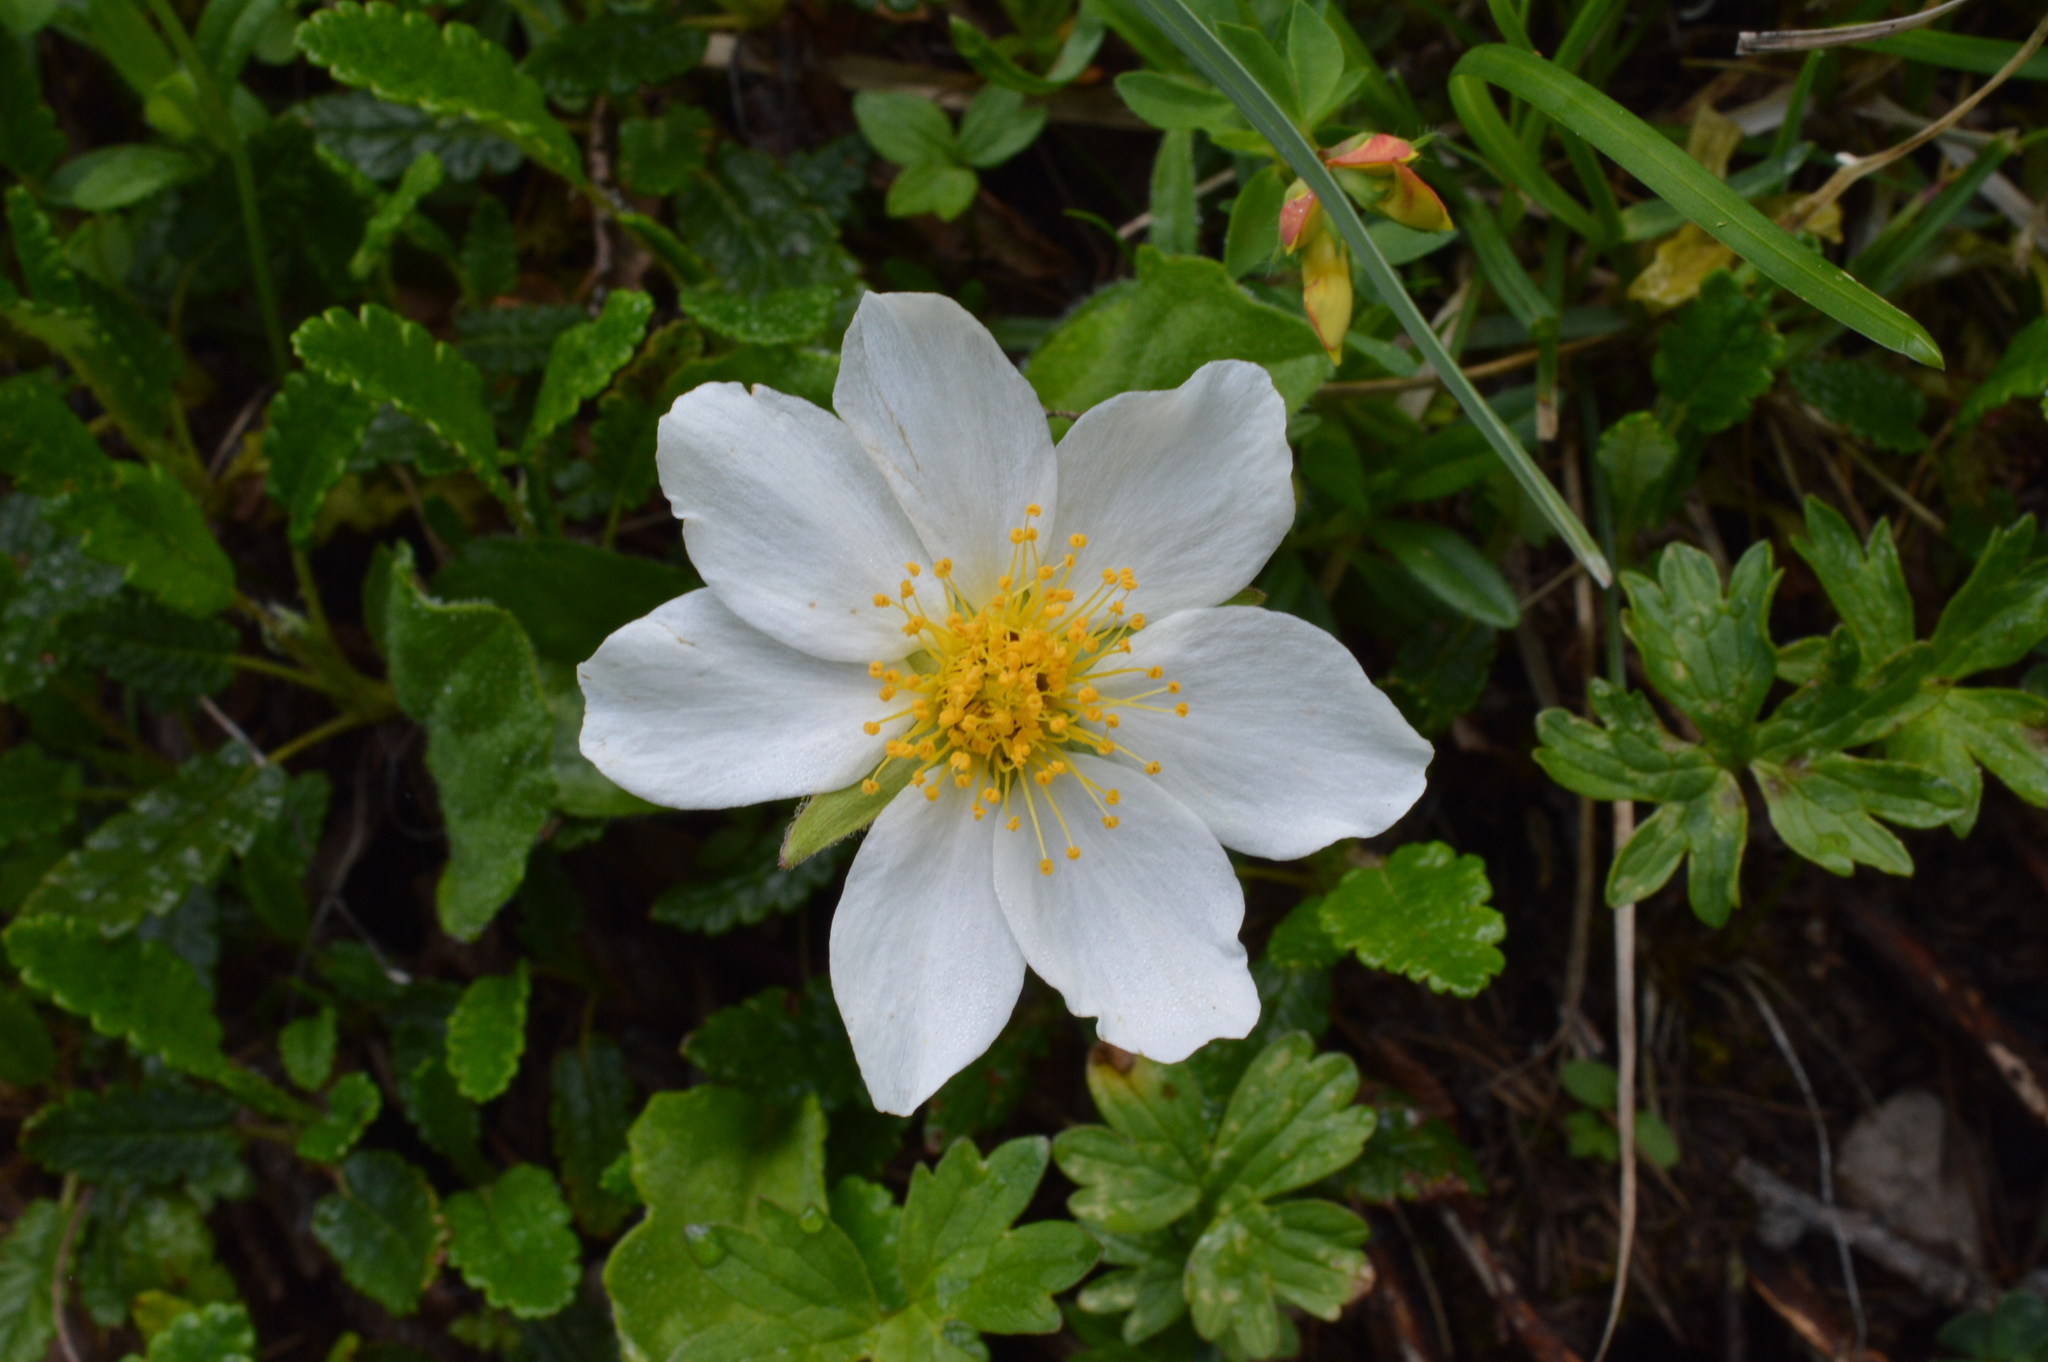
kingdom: Plantae
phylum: Tracheophyta
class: Magnoliopsida
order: Rosales
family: Rosaceae
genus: Dryas
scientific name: Dryas octopetala
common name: Eight-petal mountain-avens
